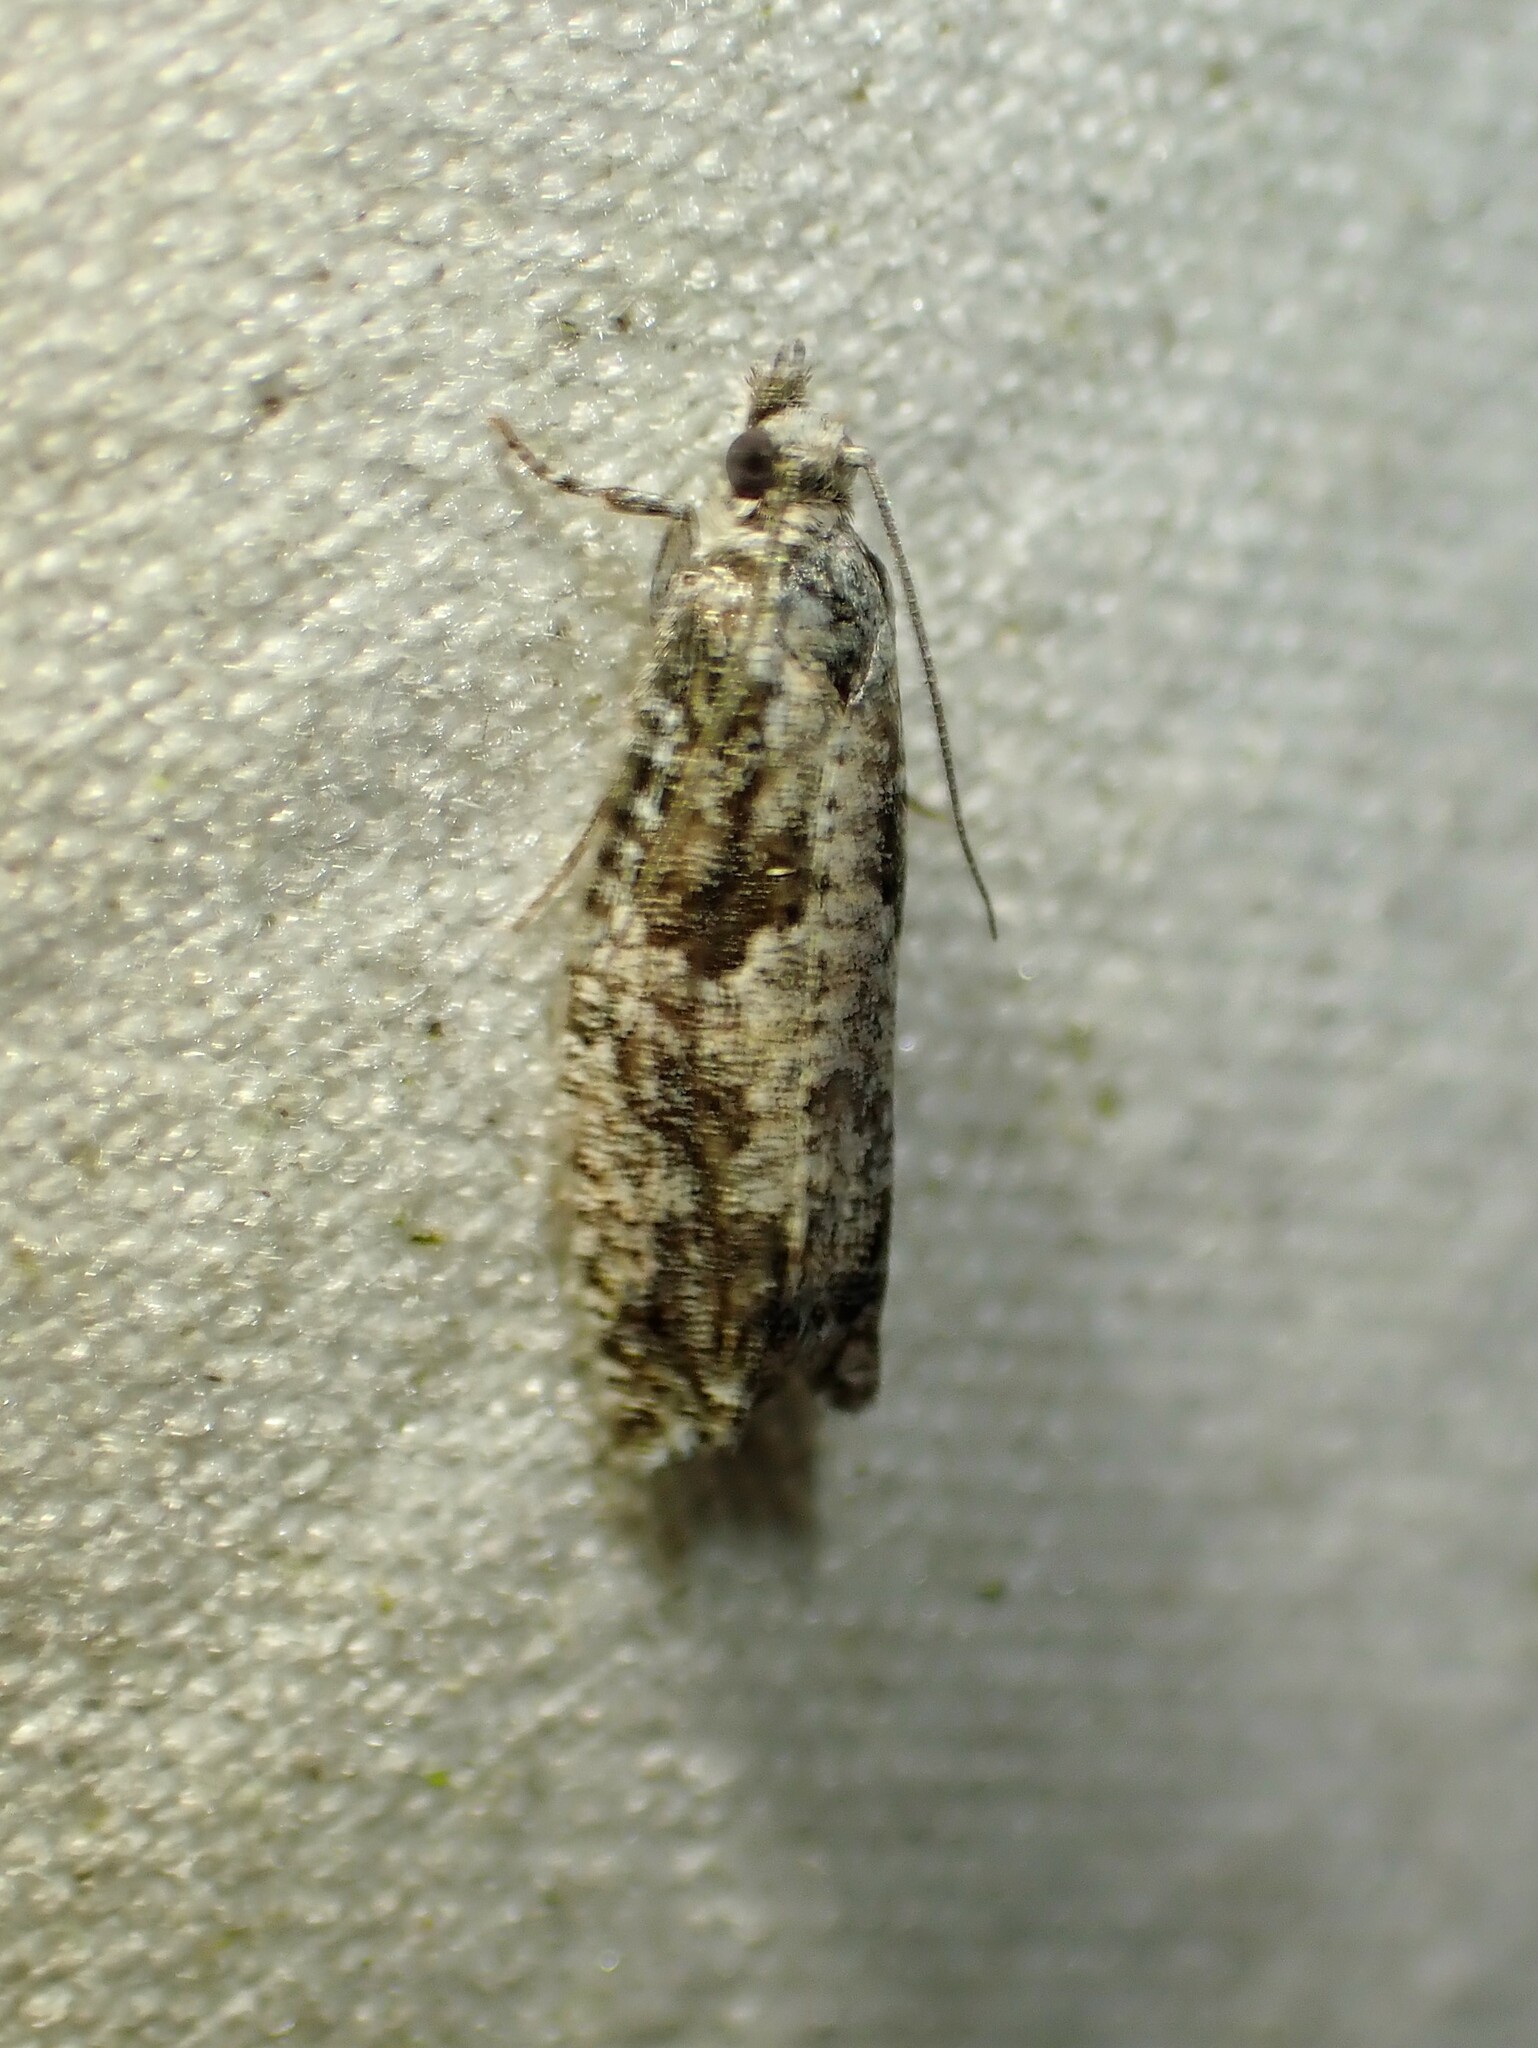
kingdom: Animalia
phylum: Arthropoda
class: Insecta
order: Lepidoptera
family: Tortricidae
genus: Epinotia
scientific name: Epinotia cinereana
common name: Grey aspen bell
